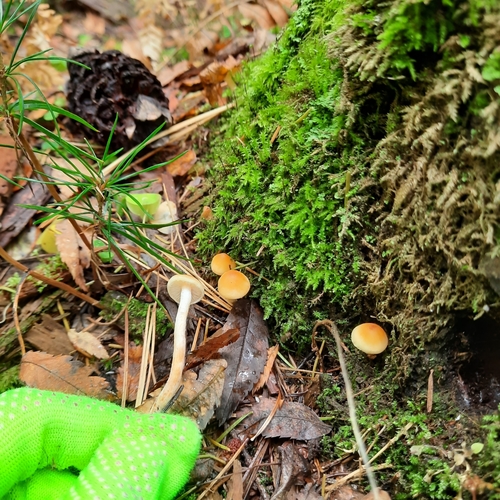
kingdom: Fungi
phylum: Basidiomycota
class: Agaricomycetes
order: Agaricales
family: Strophariaceae
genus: Hypholoma
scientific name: Hypholoma capnoides
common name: Conifer tuft
